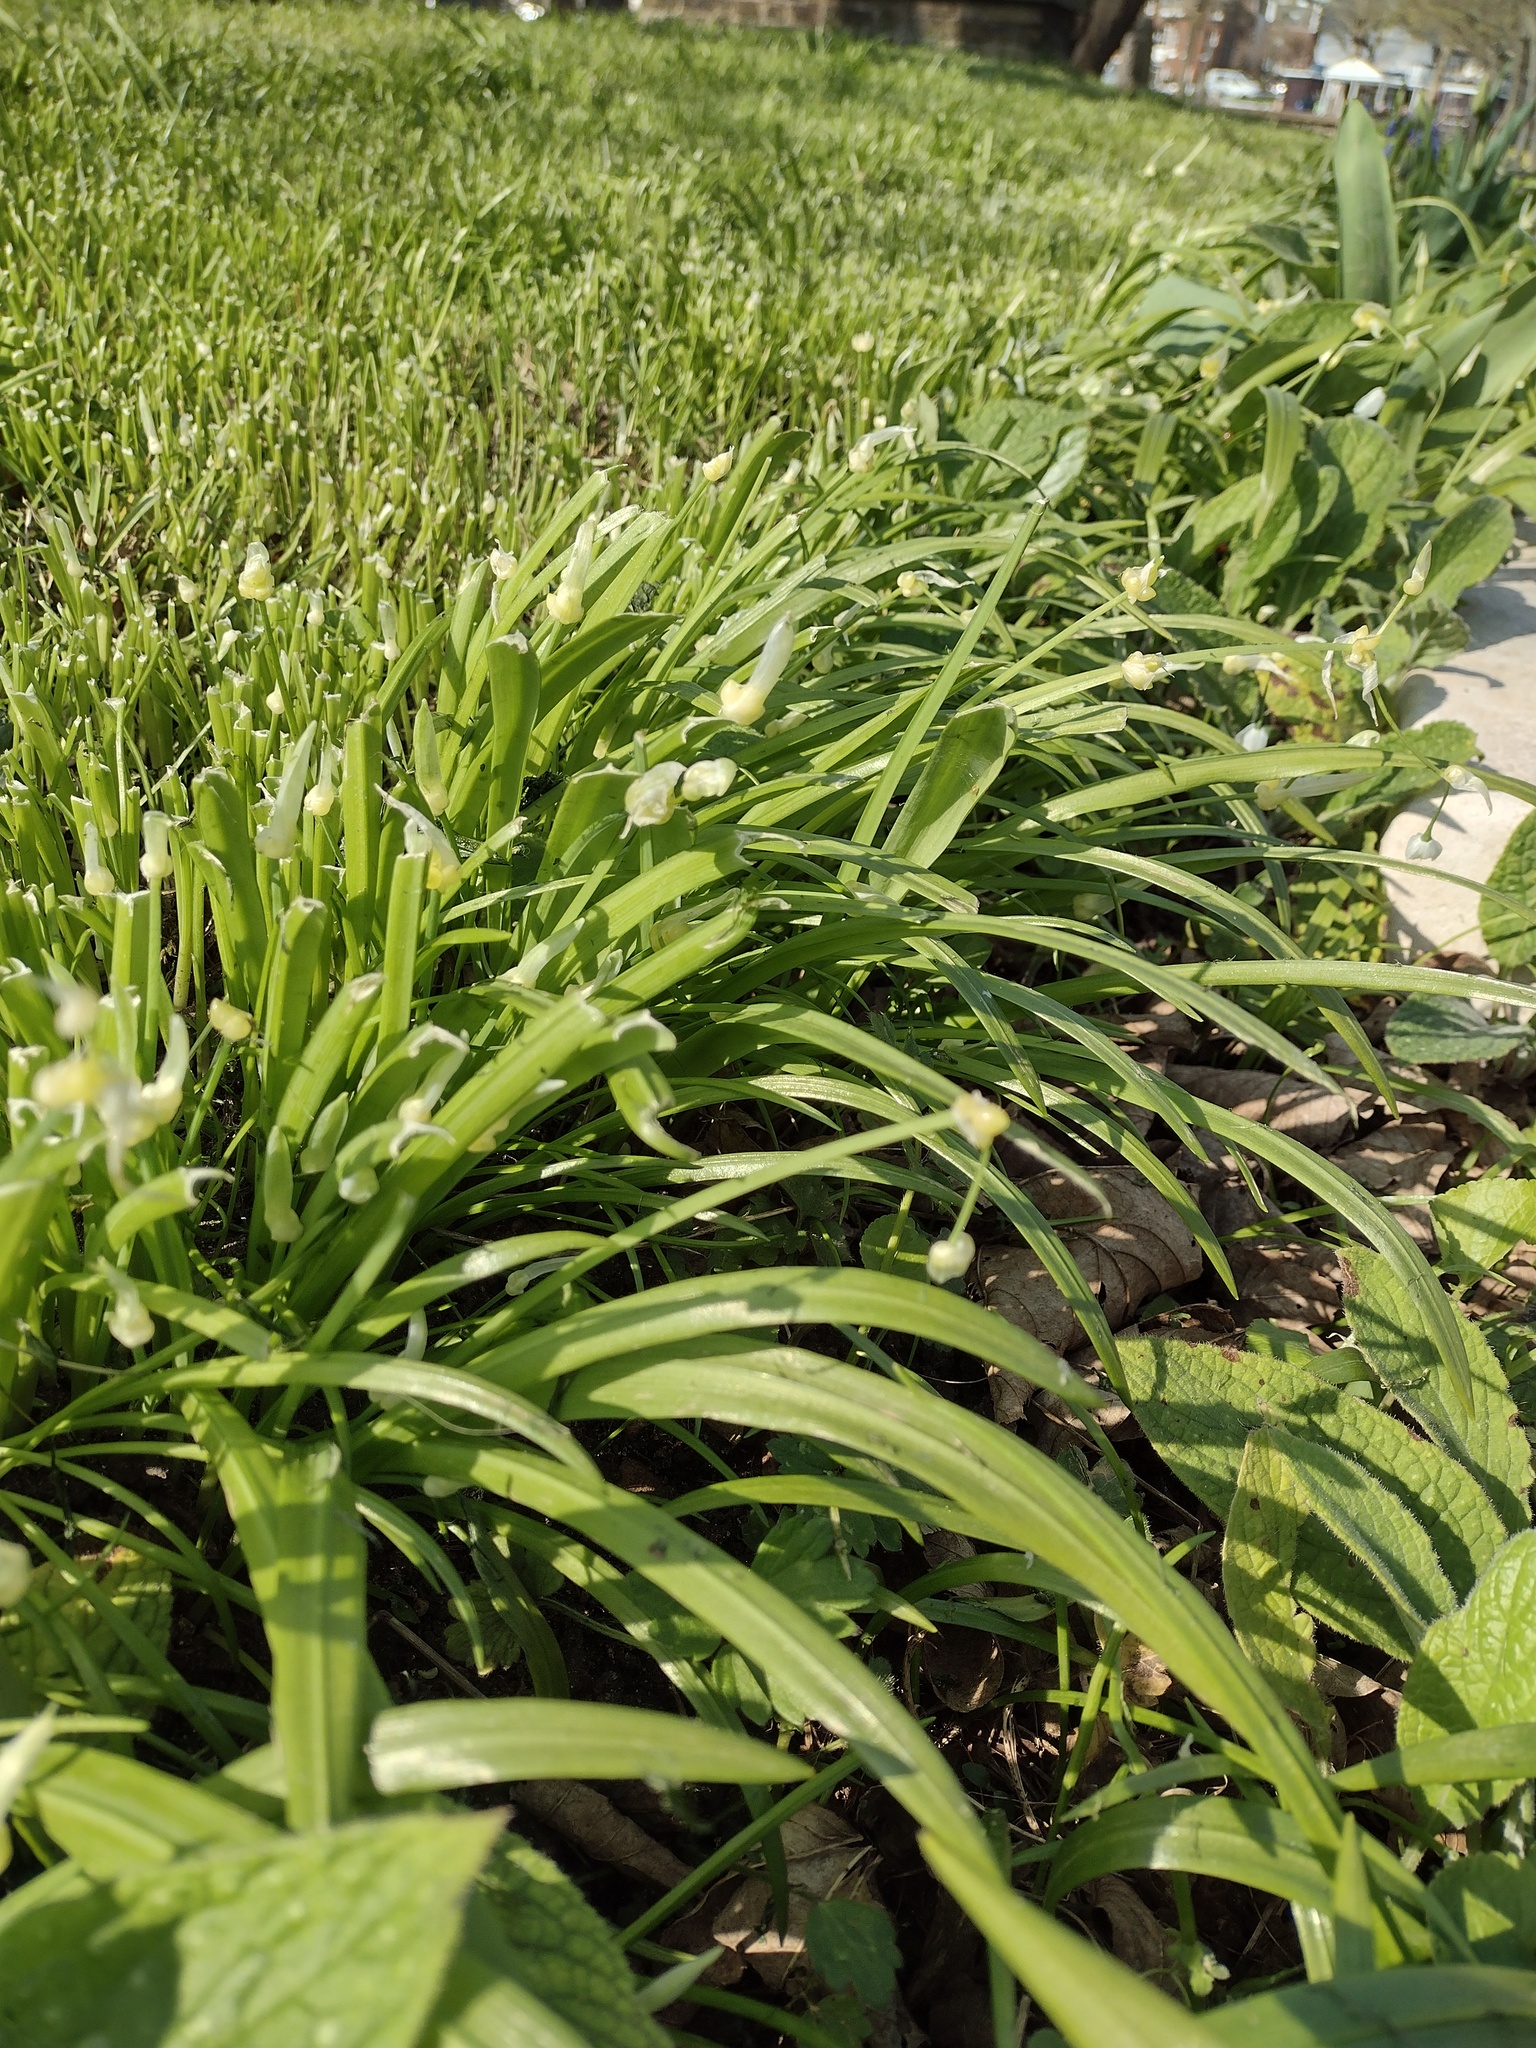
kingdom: Plantae
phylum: Tracheophyta
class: Liliopsida
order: Asparagales
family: Amaryllidaceae
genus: Allium
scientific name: Allium paradoxum
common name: Few-flowered garlic
